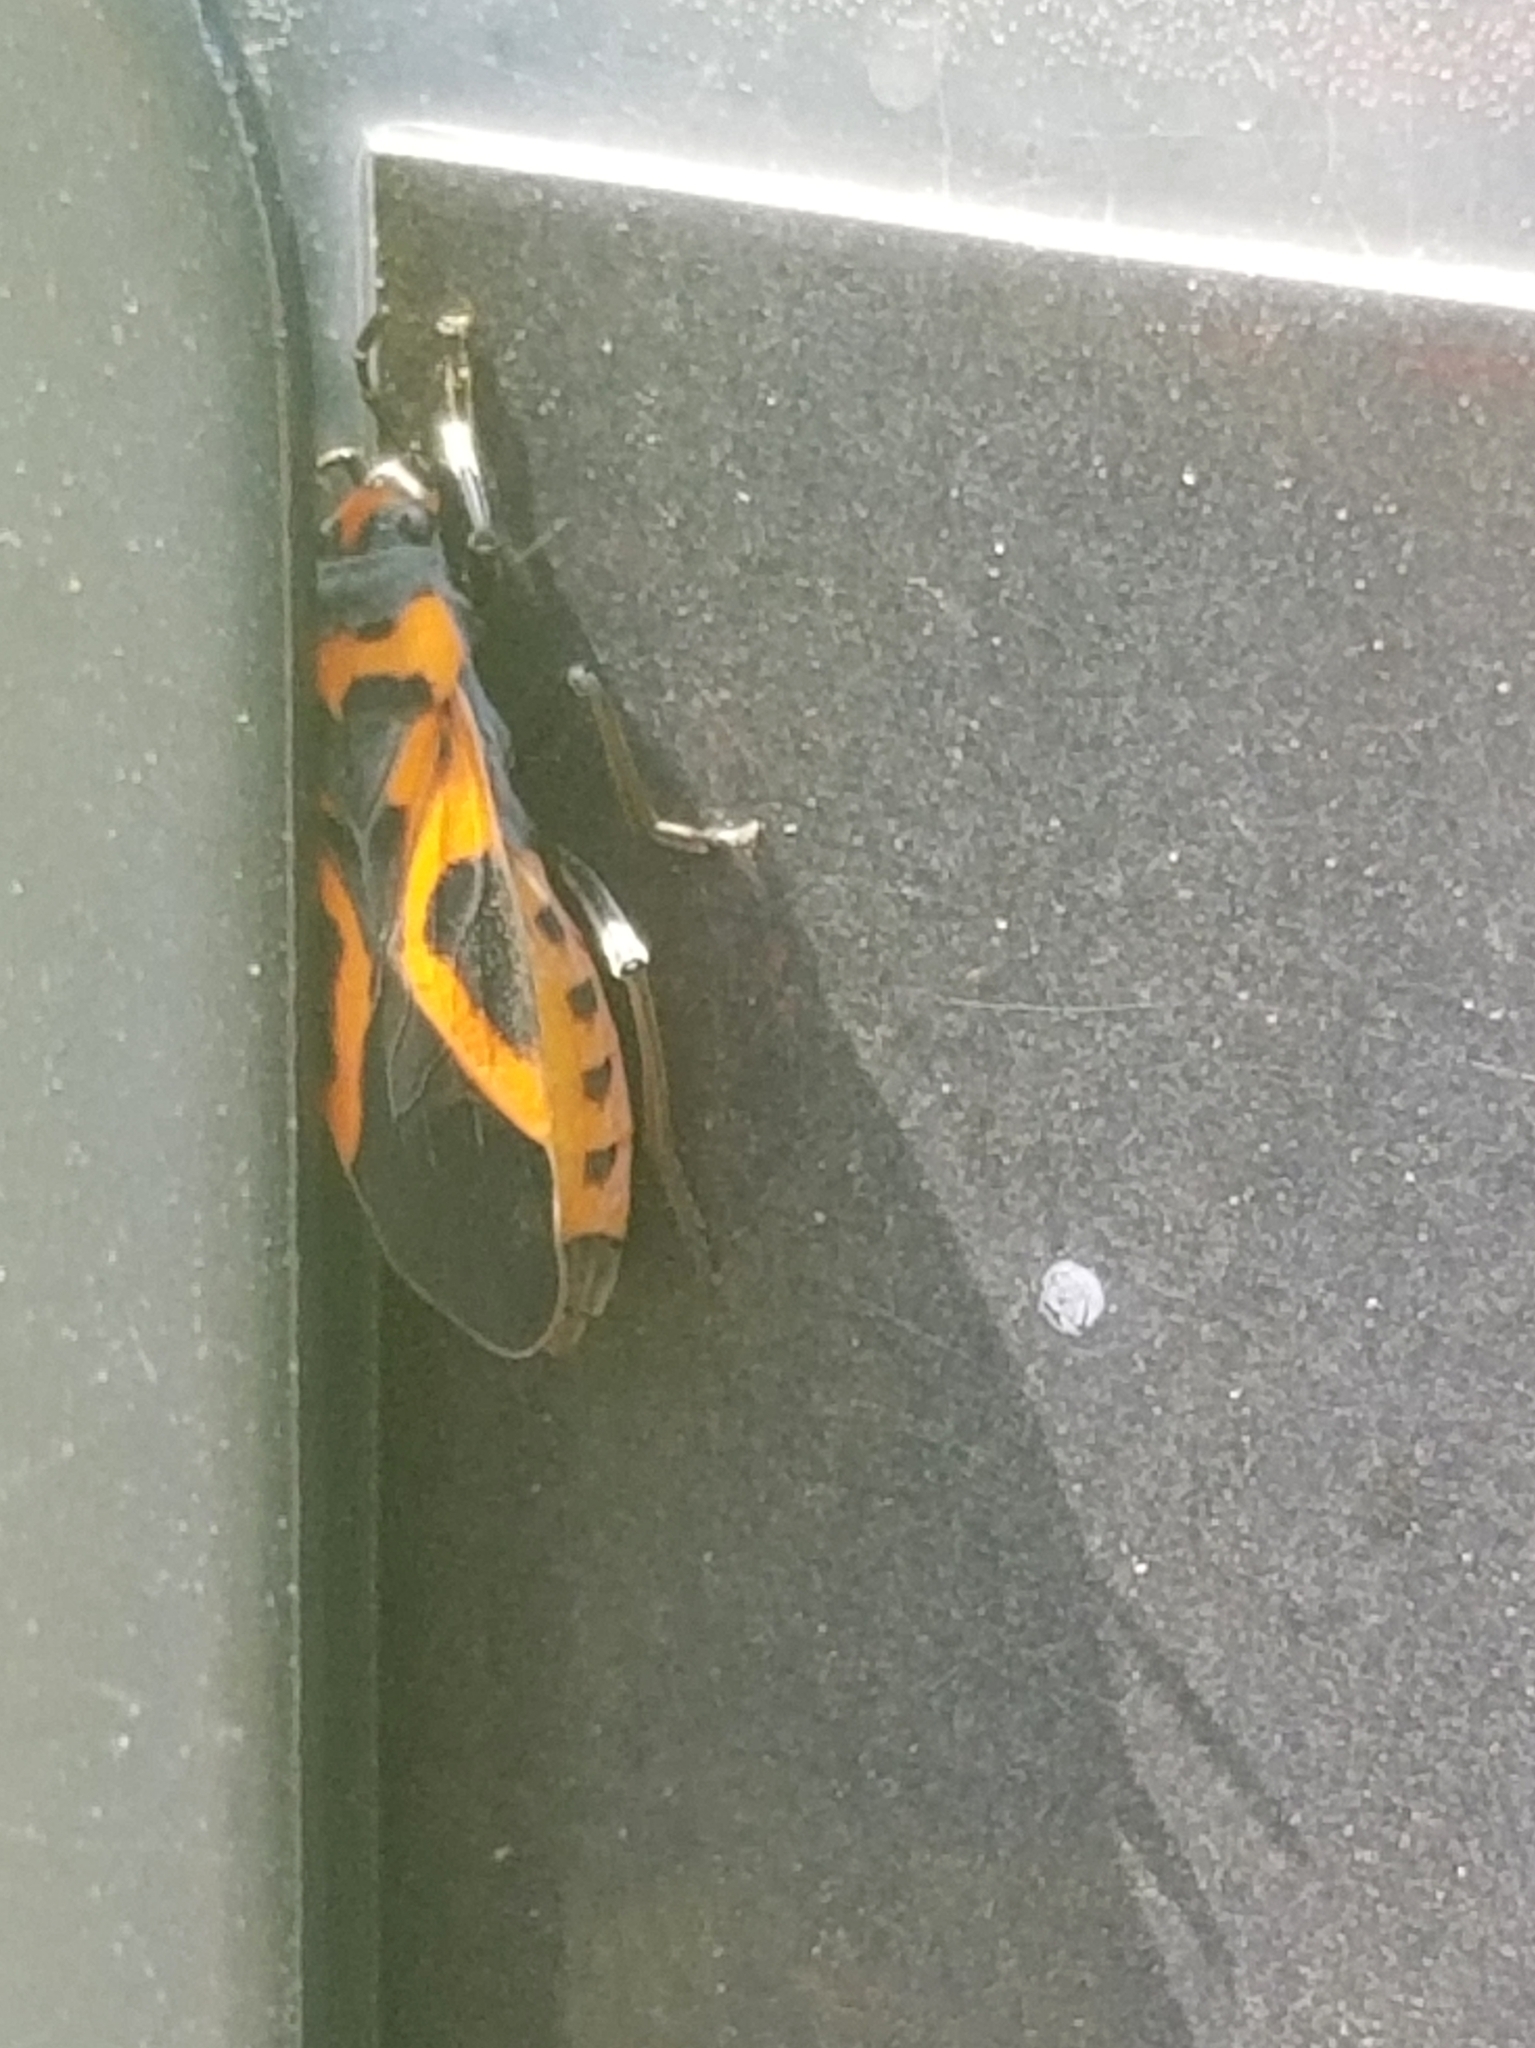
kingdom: Animalia
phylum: Arthropoda
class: Insecta
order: Hemiptera
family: Lygaeidae
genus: Lygaeus
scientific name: Lygaeus turcicus
